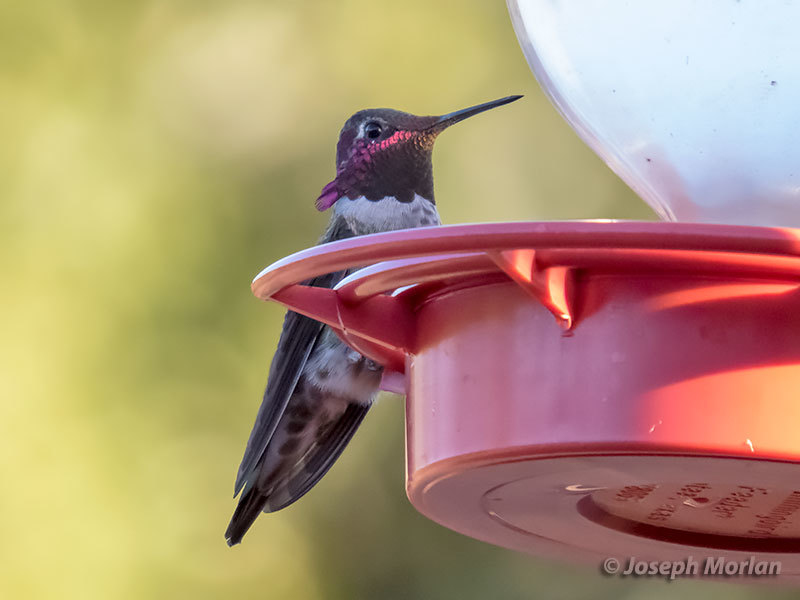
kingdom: Animalia
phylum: Chordata
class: Aves
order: Apodiformes
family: Trochilidae
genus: Calypte
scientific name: Calypte anna
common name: Anna's hummingbird
